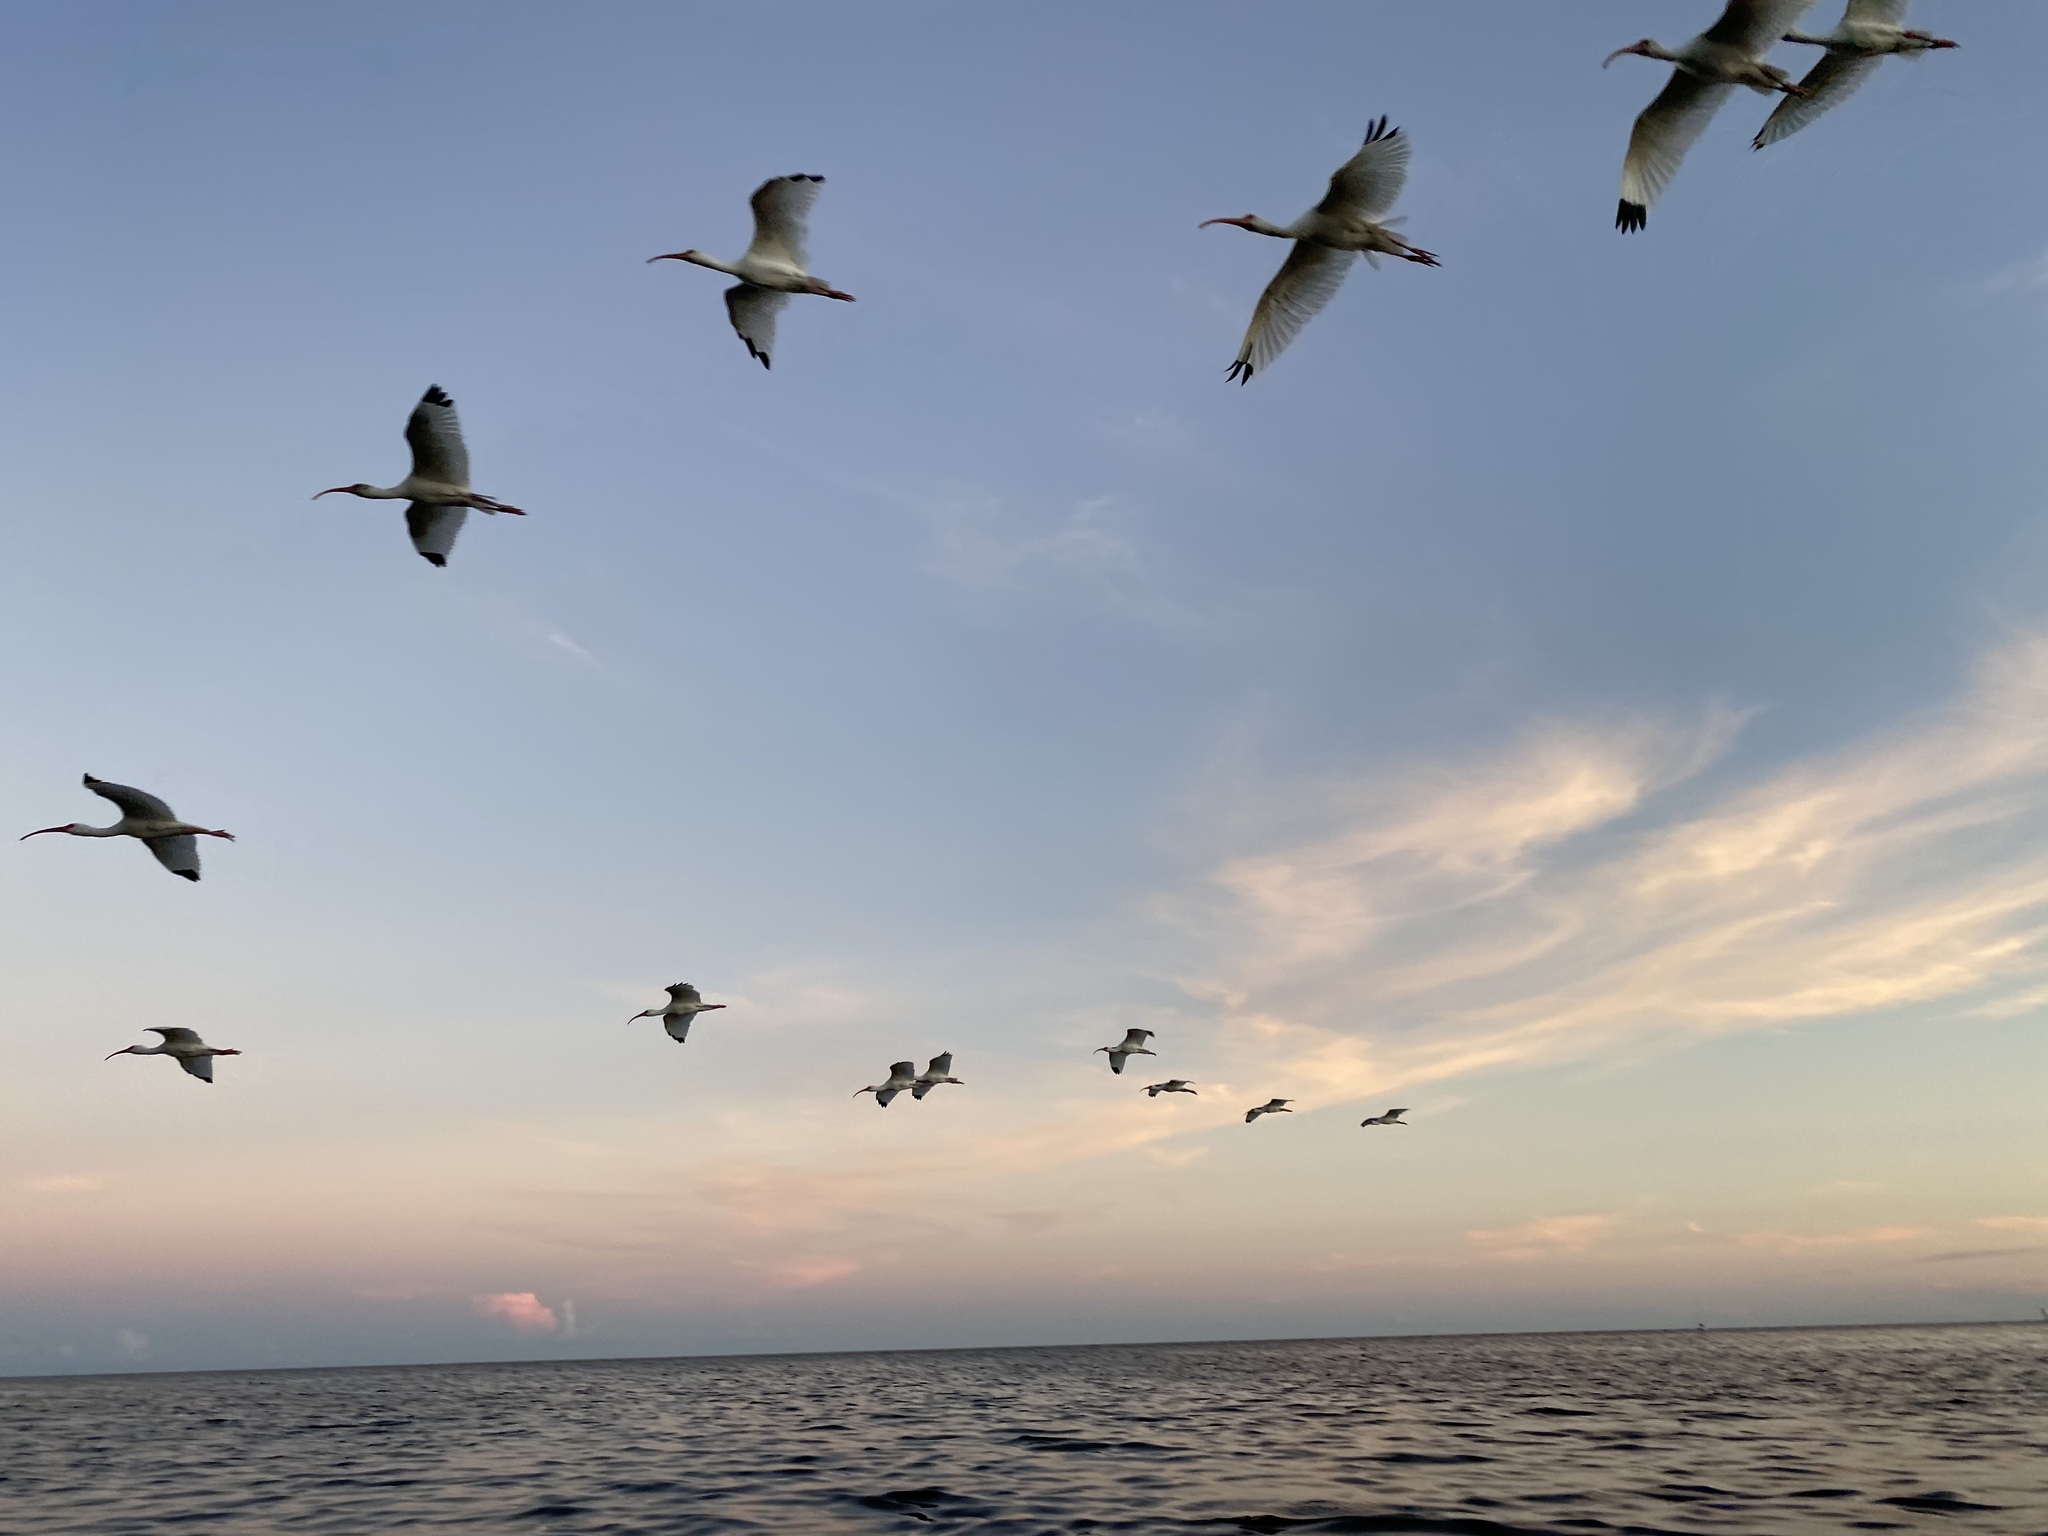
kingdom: Animalia
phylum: Chordata
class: Aves
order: Pelecaniformes
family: Threskiornithidae
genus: Eudocimus
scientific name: Eudocimus albus
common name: White ibis
